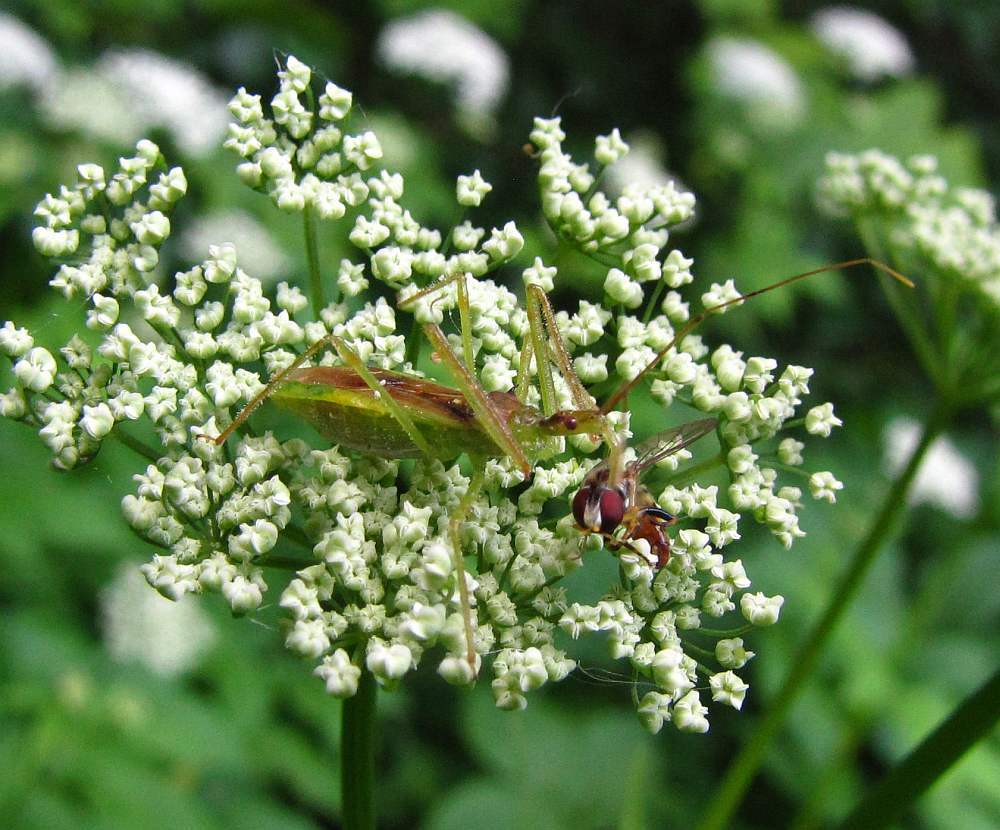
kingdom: Animalia
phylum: Arthropoda
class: Insecta
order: Hemiptera
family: Reduviidae
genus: Zelus
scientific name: Zelus luridus
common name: Pale green assassin bug
